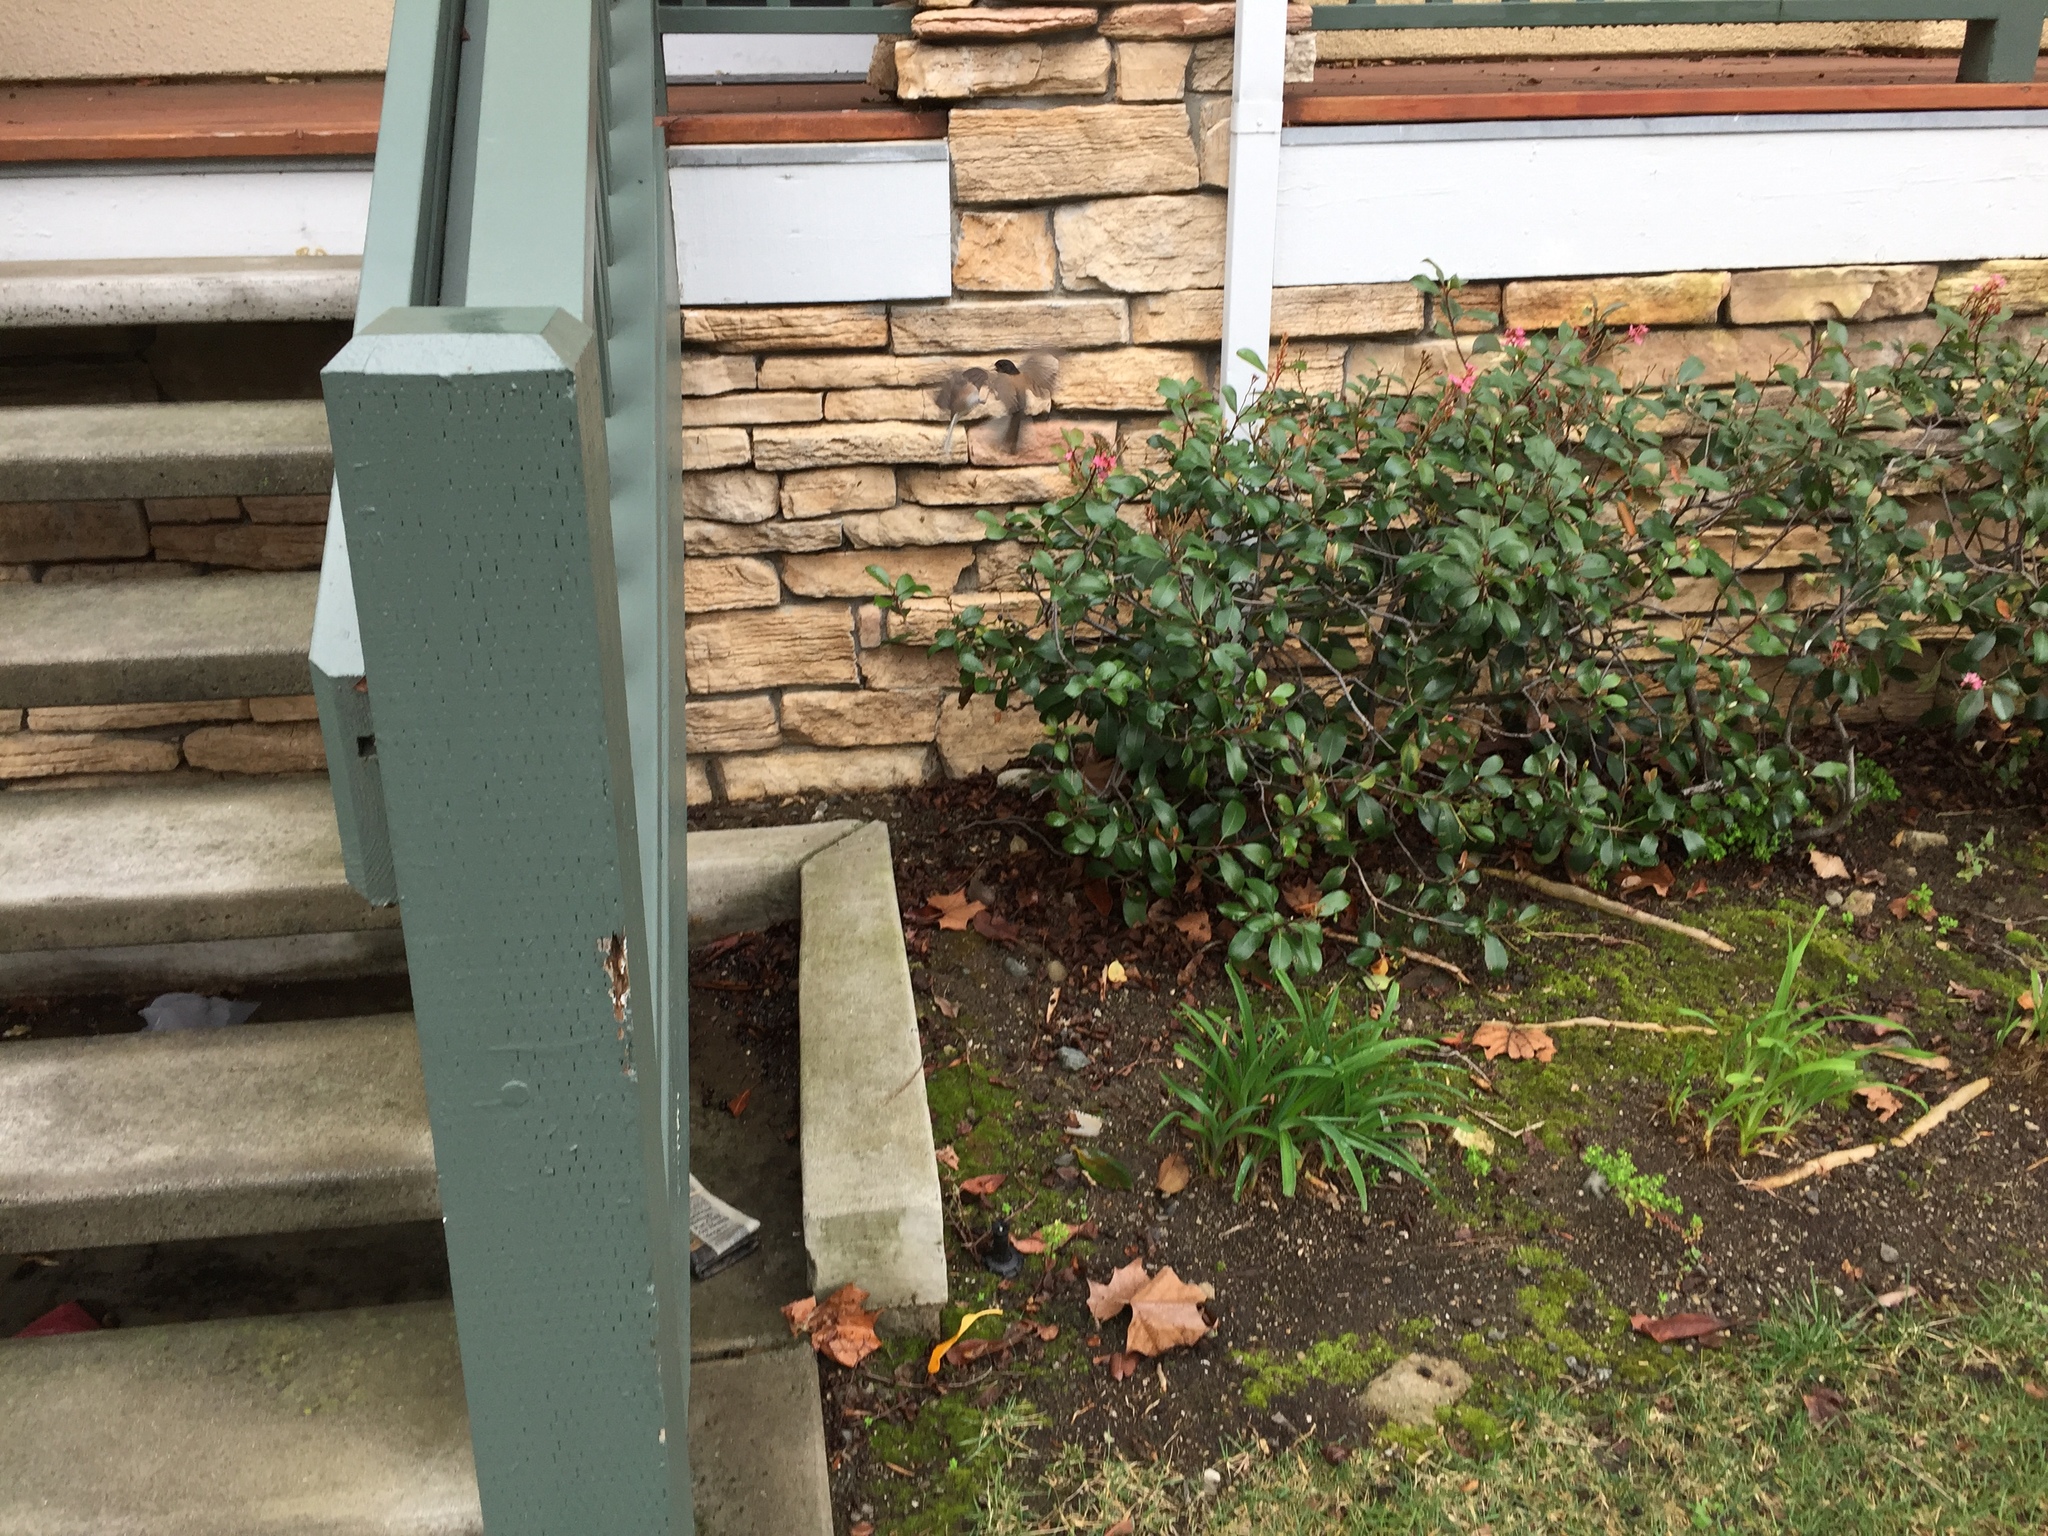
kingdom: Animalia
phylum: Chordata
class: Aves
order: Passeriformes
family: Passerellidae
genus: Junco
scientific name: Junco hyemalis
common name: Dark-eyed junco
